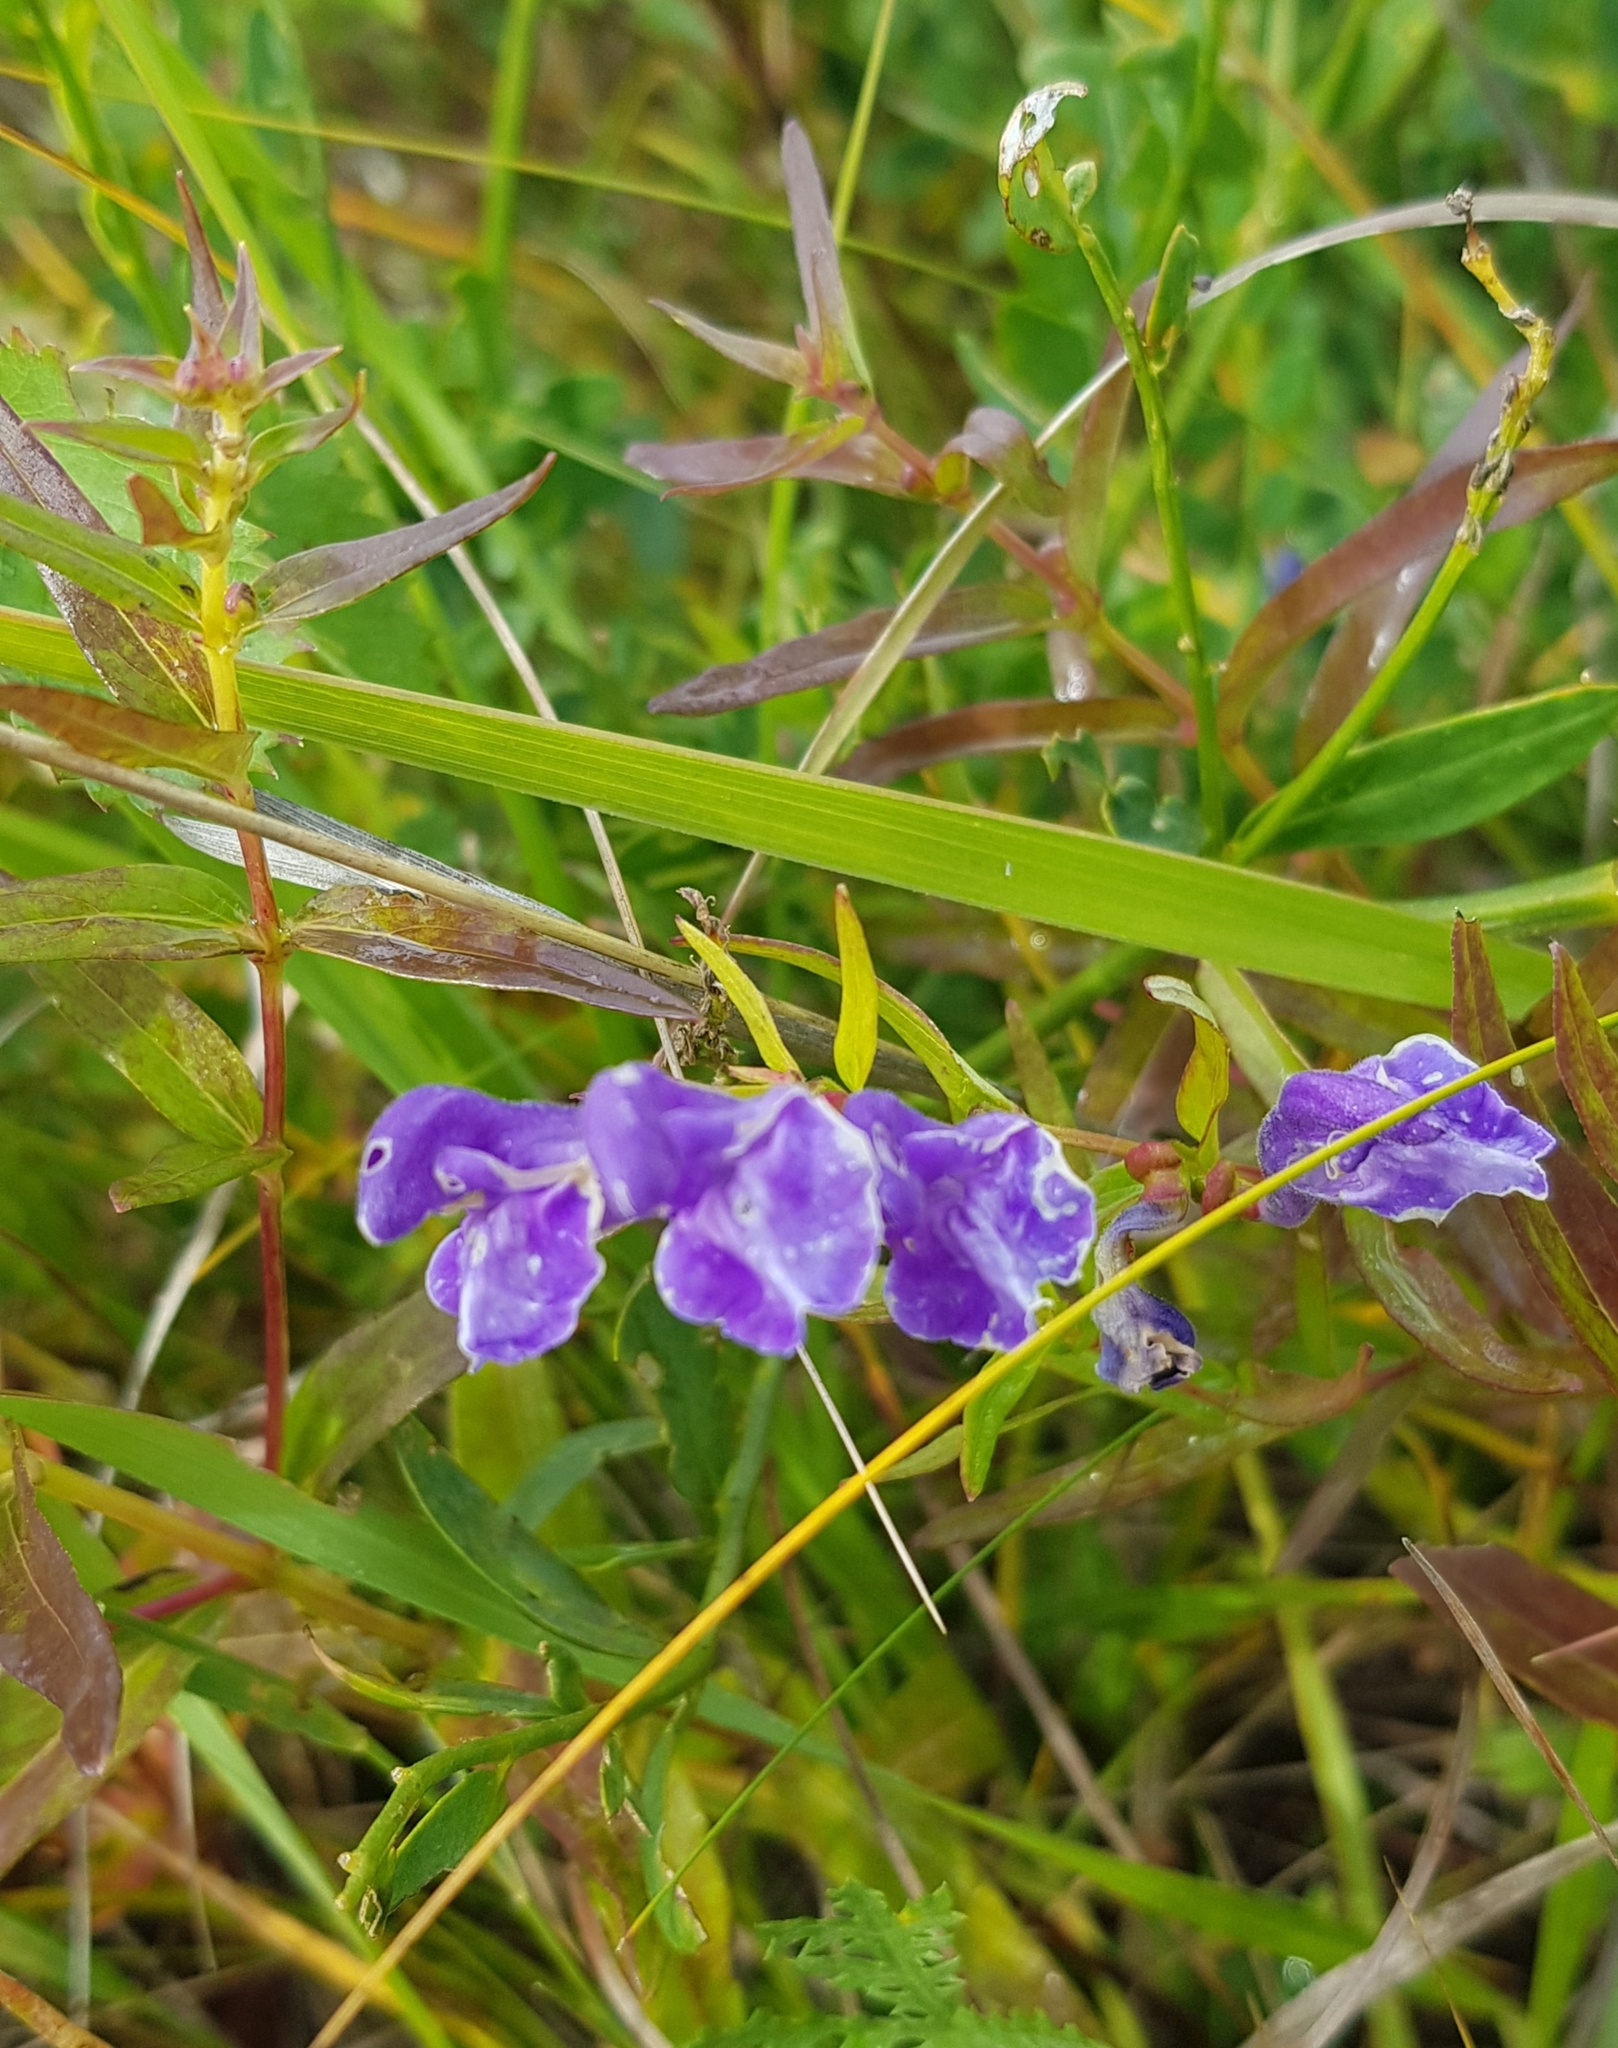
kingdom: Plantae
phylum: Tracheophyta
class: Magnoliopsida
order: Lamiales
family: Lamiaceae
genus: Scutellaria
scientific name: Scutellaria baicalensis
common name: Baikal skullcap
